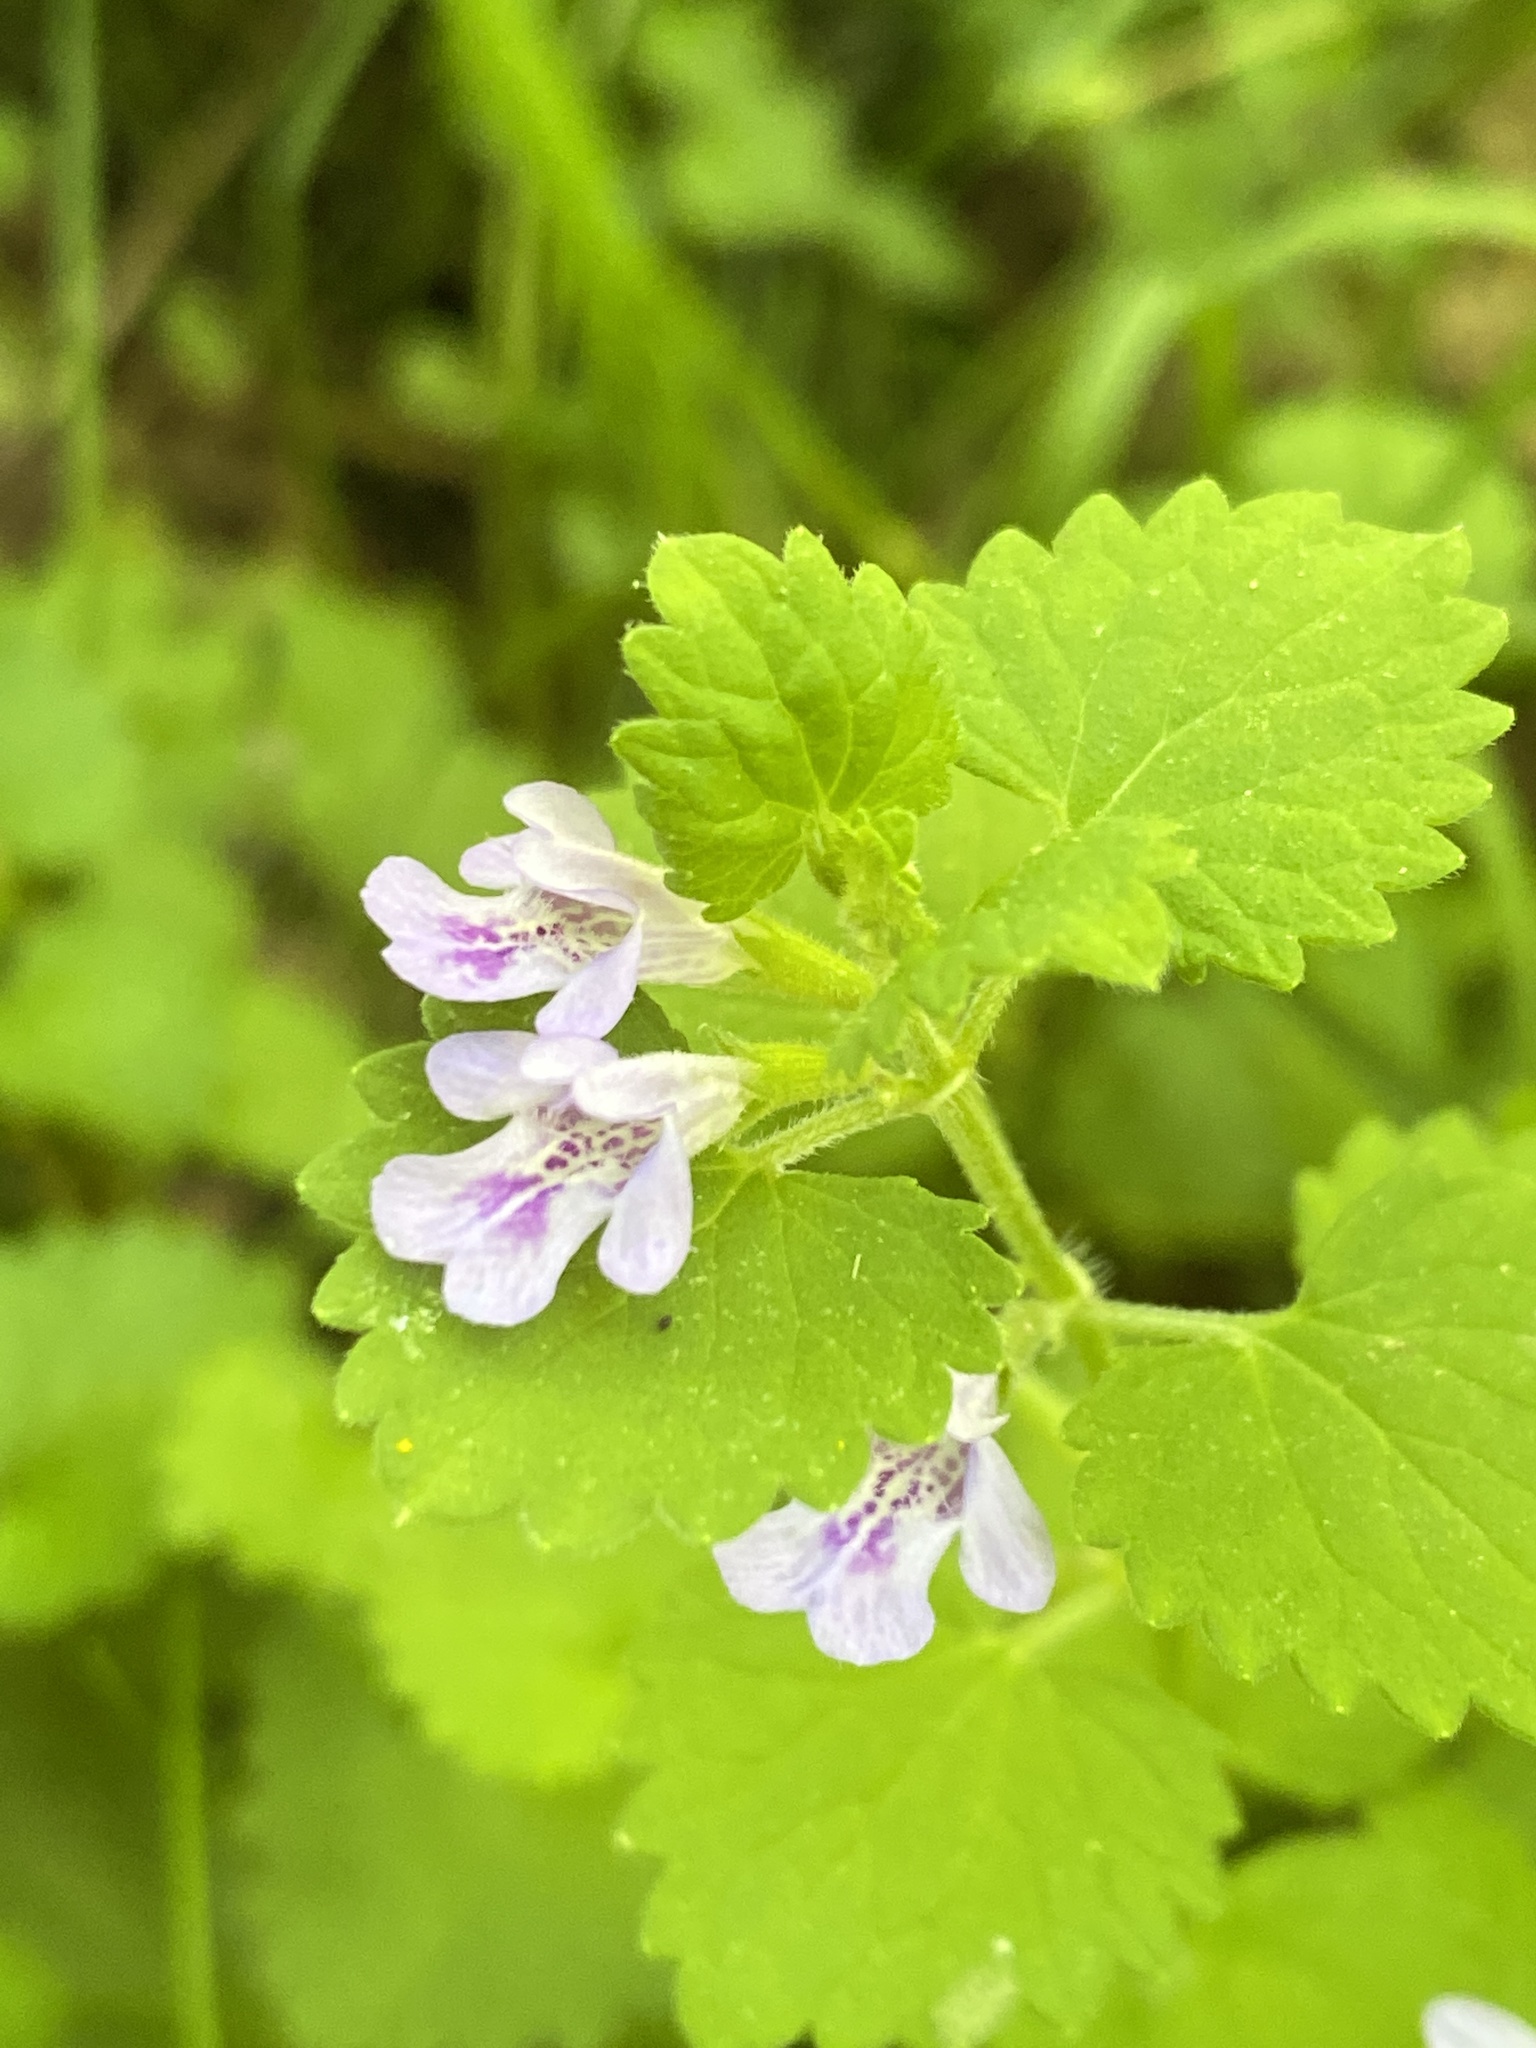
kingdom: Plantae
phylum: Tracheophyta
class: Magnoliopsida
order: Lamiales
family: Lamiaceae
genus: Glechoma
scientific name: Glechoma hederacea
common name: Ground ivy
